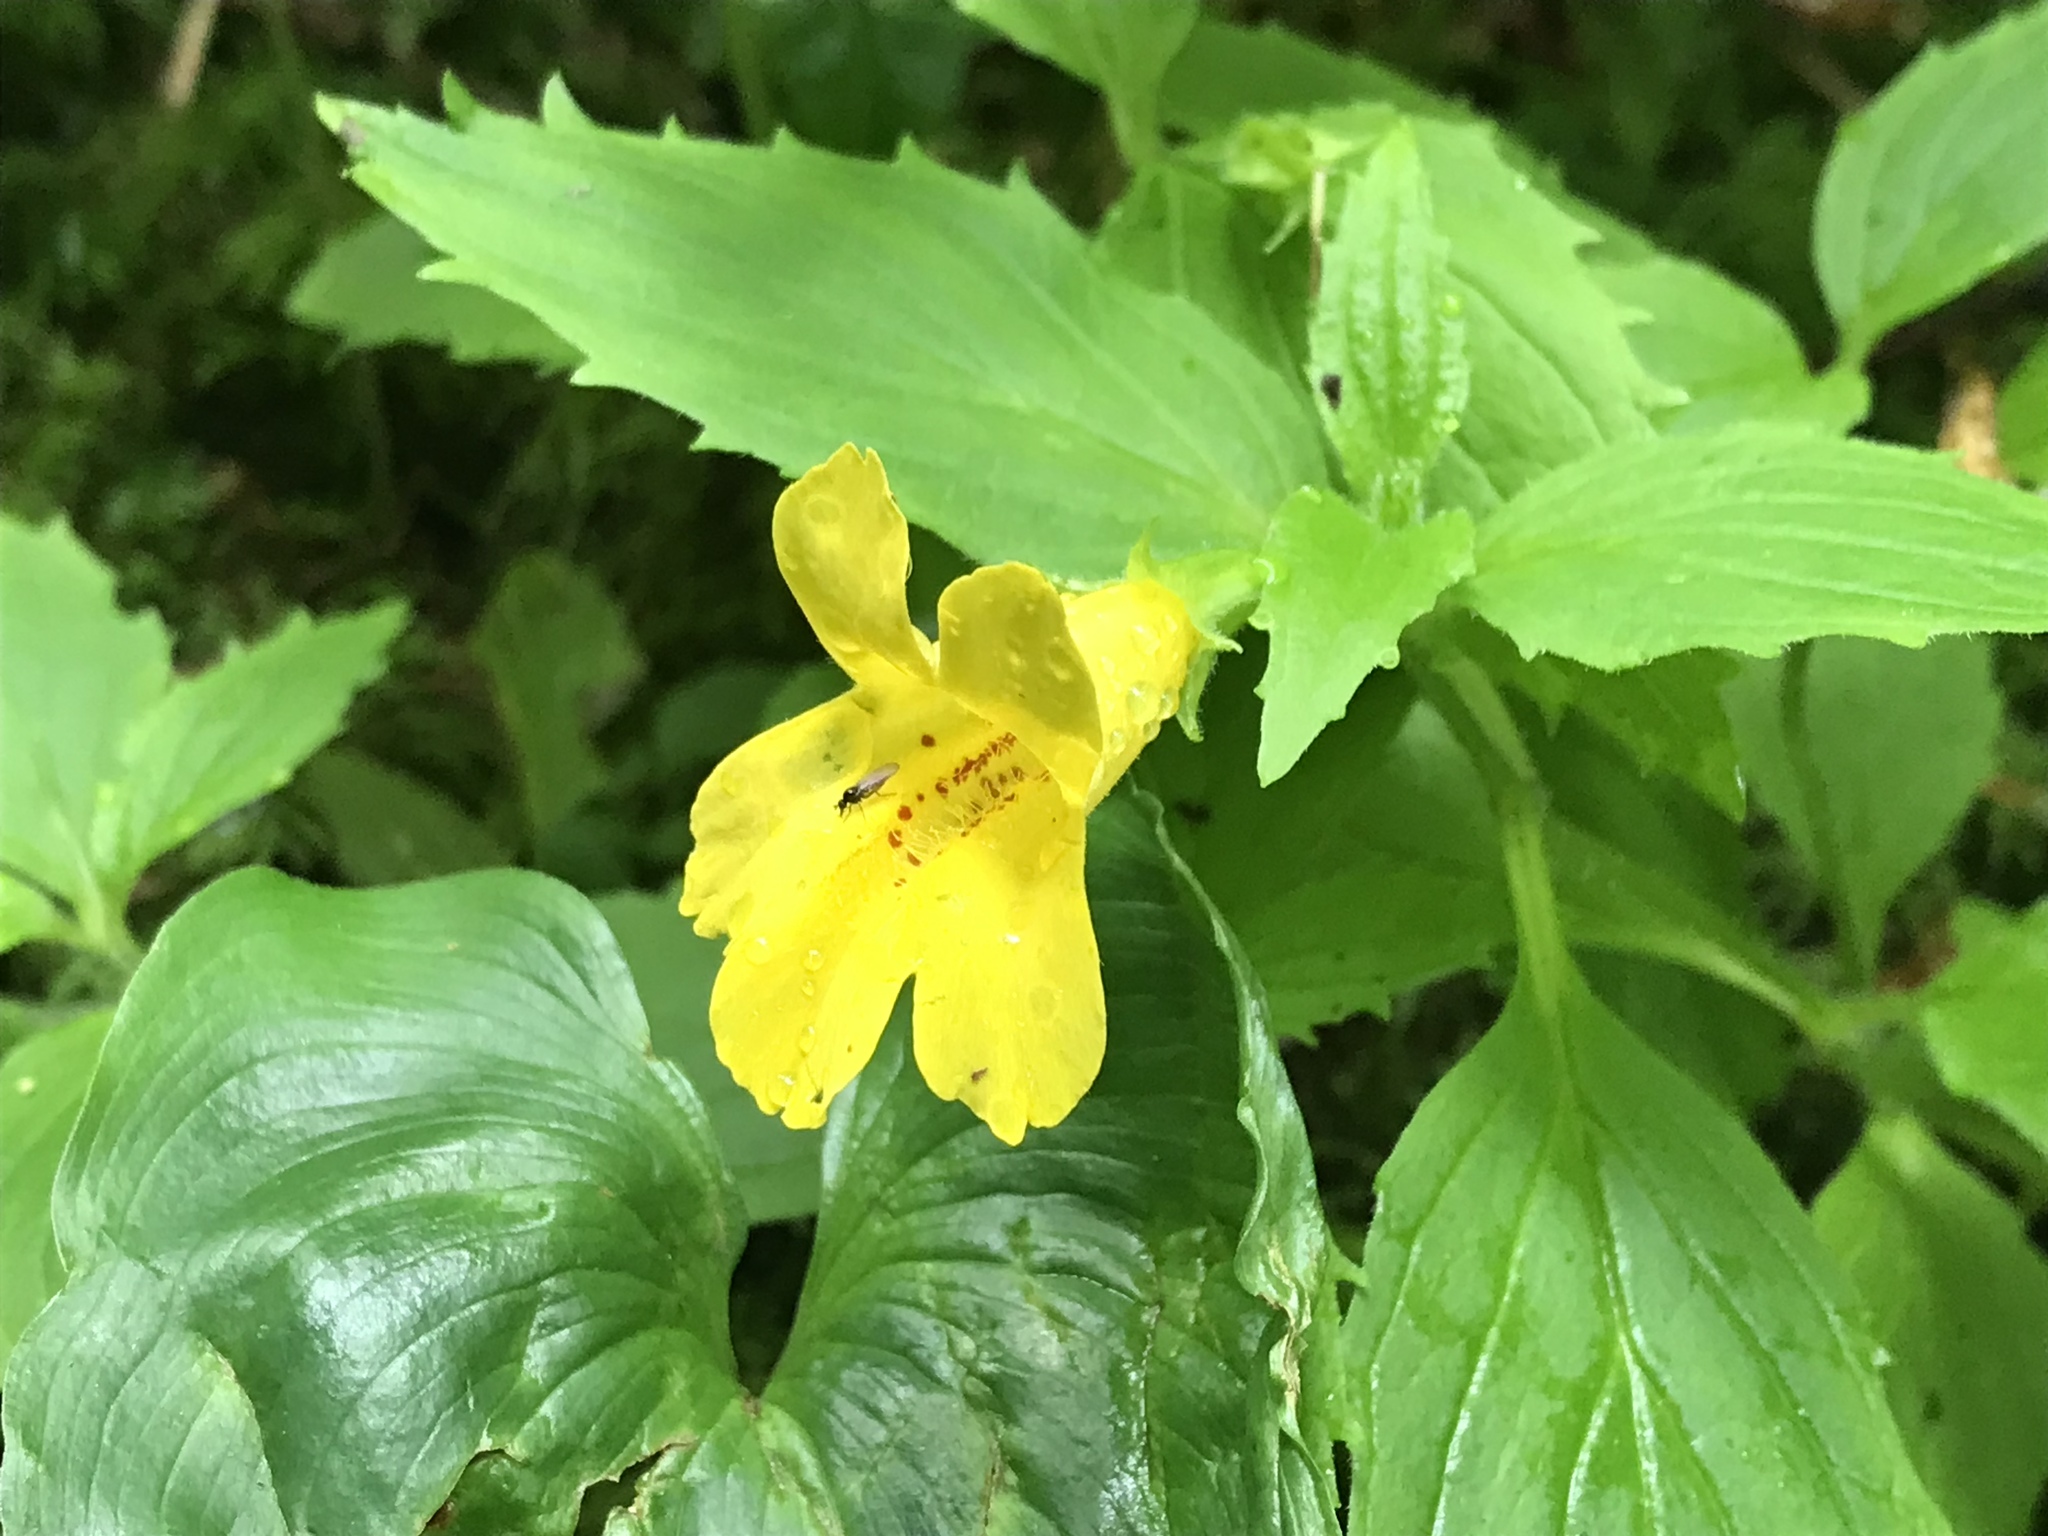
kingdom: Plantae
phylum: Tracheophyta
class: Magnoliopsida
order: Lamiales
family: Phrymaceae
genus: Erythranthe
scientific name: Erythranthe dentata
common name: Coastal monkeyflower
